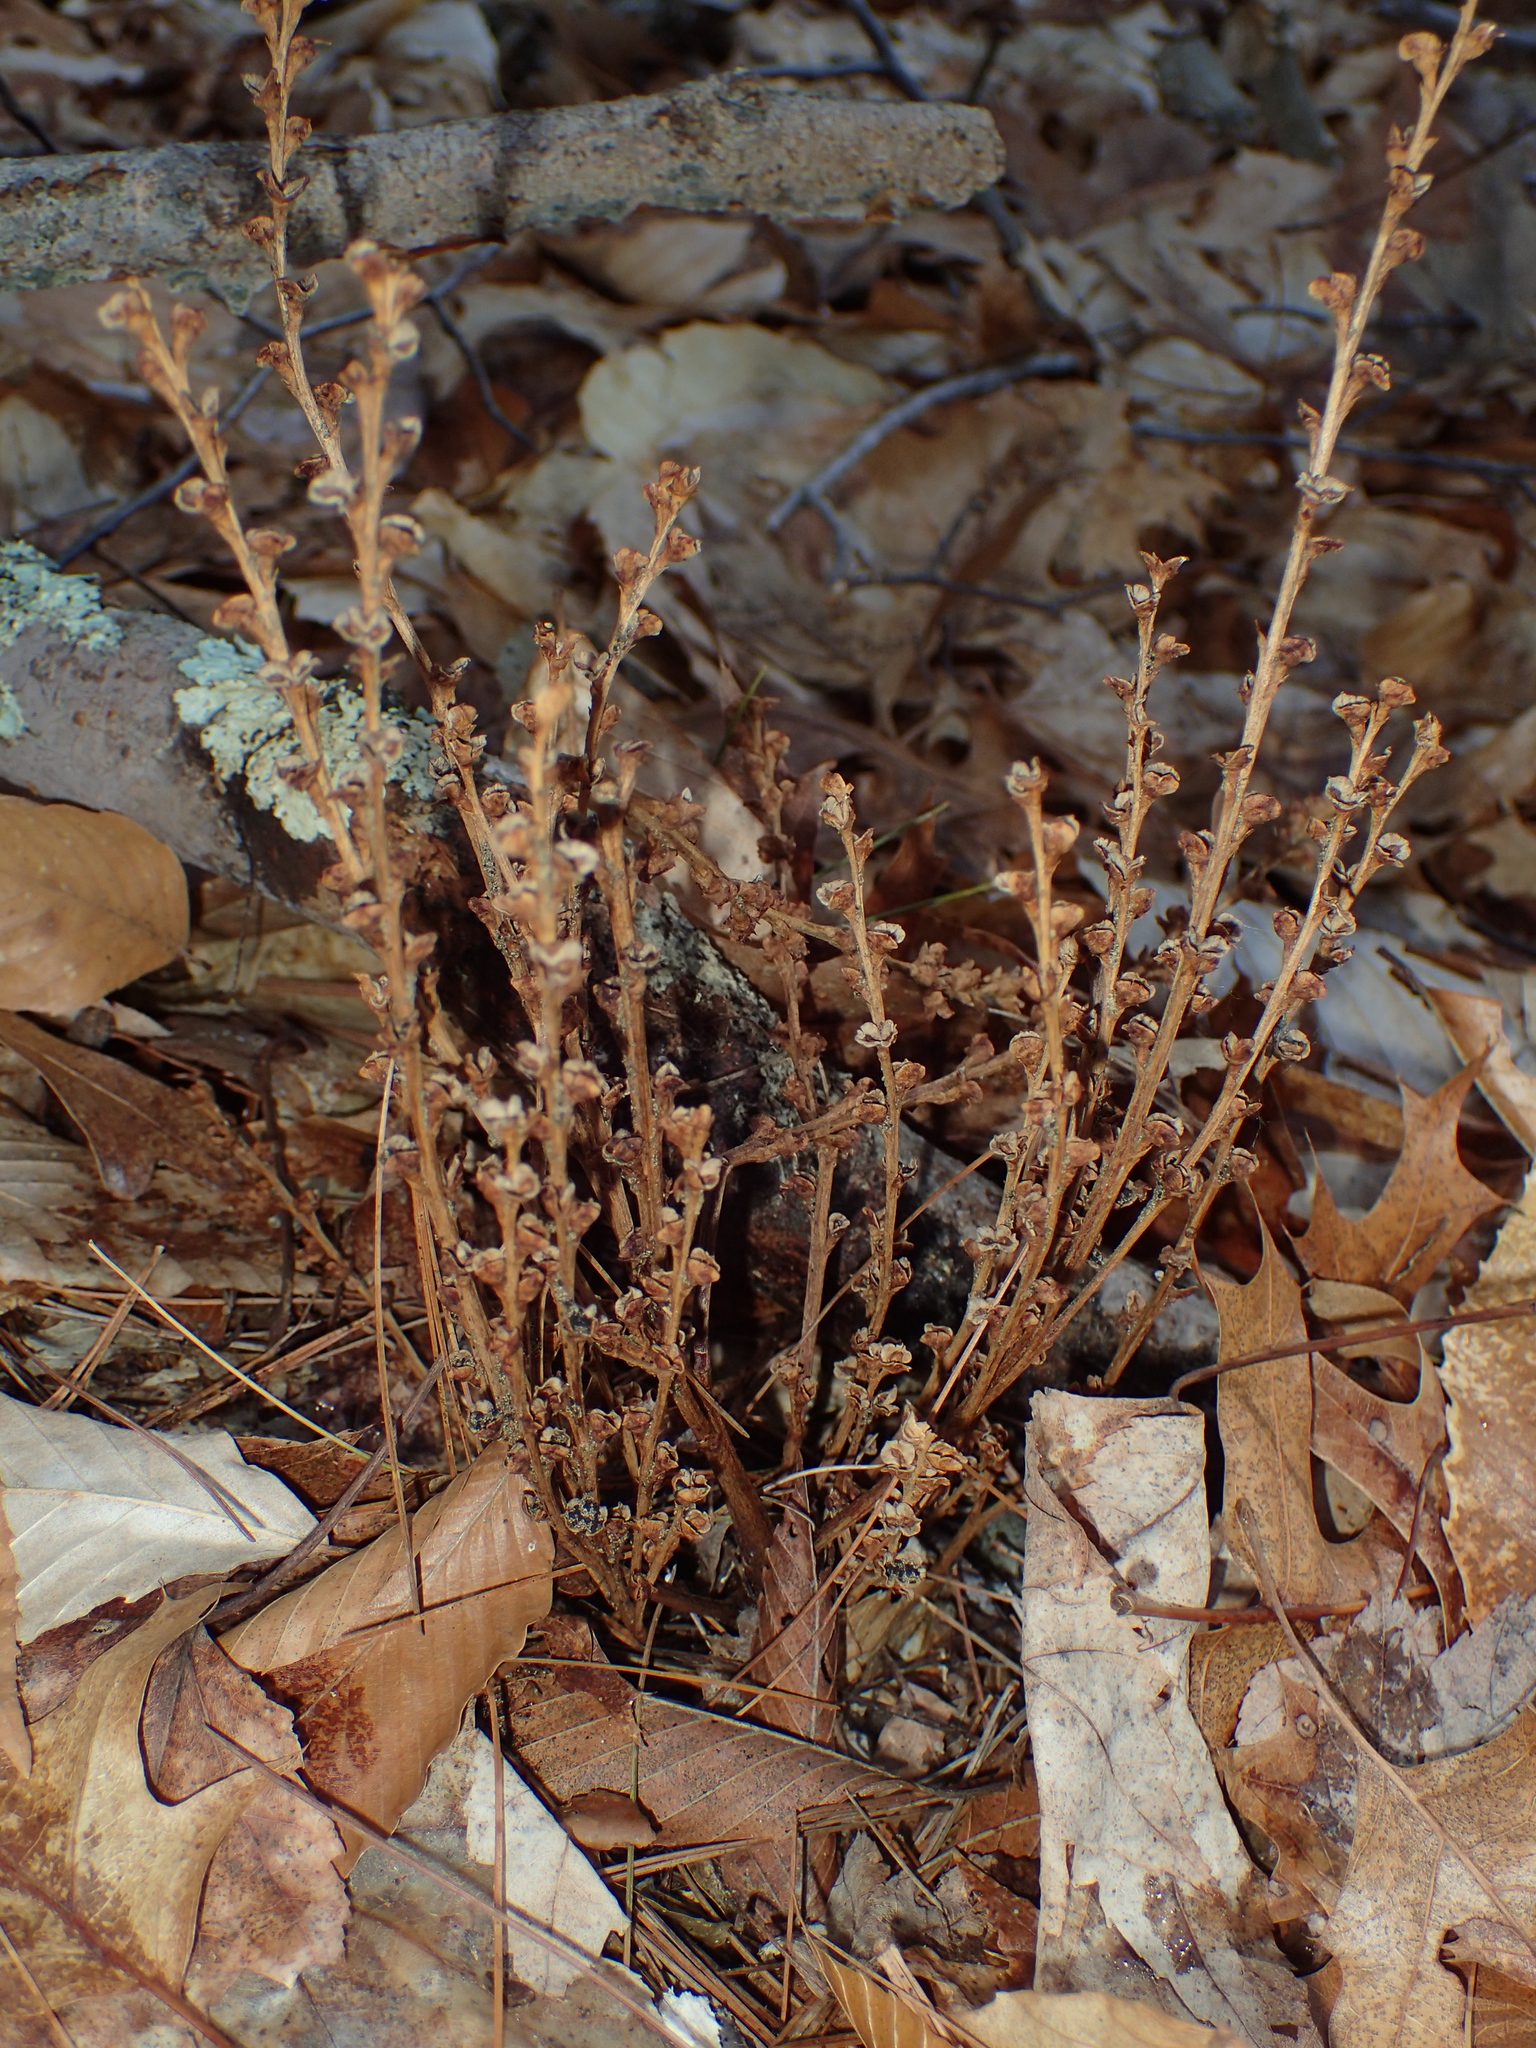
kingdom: Plantae
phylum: Tracheophyta
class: Magnoliopsida
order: Lamiales
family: Orobanchaceae
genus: Epifagus
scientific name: Epifagus virginiana
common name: Beechdrops
